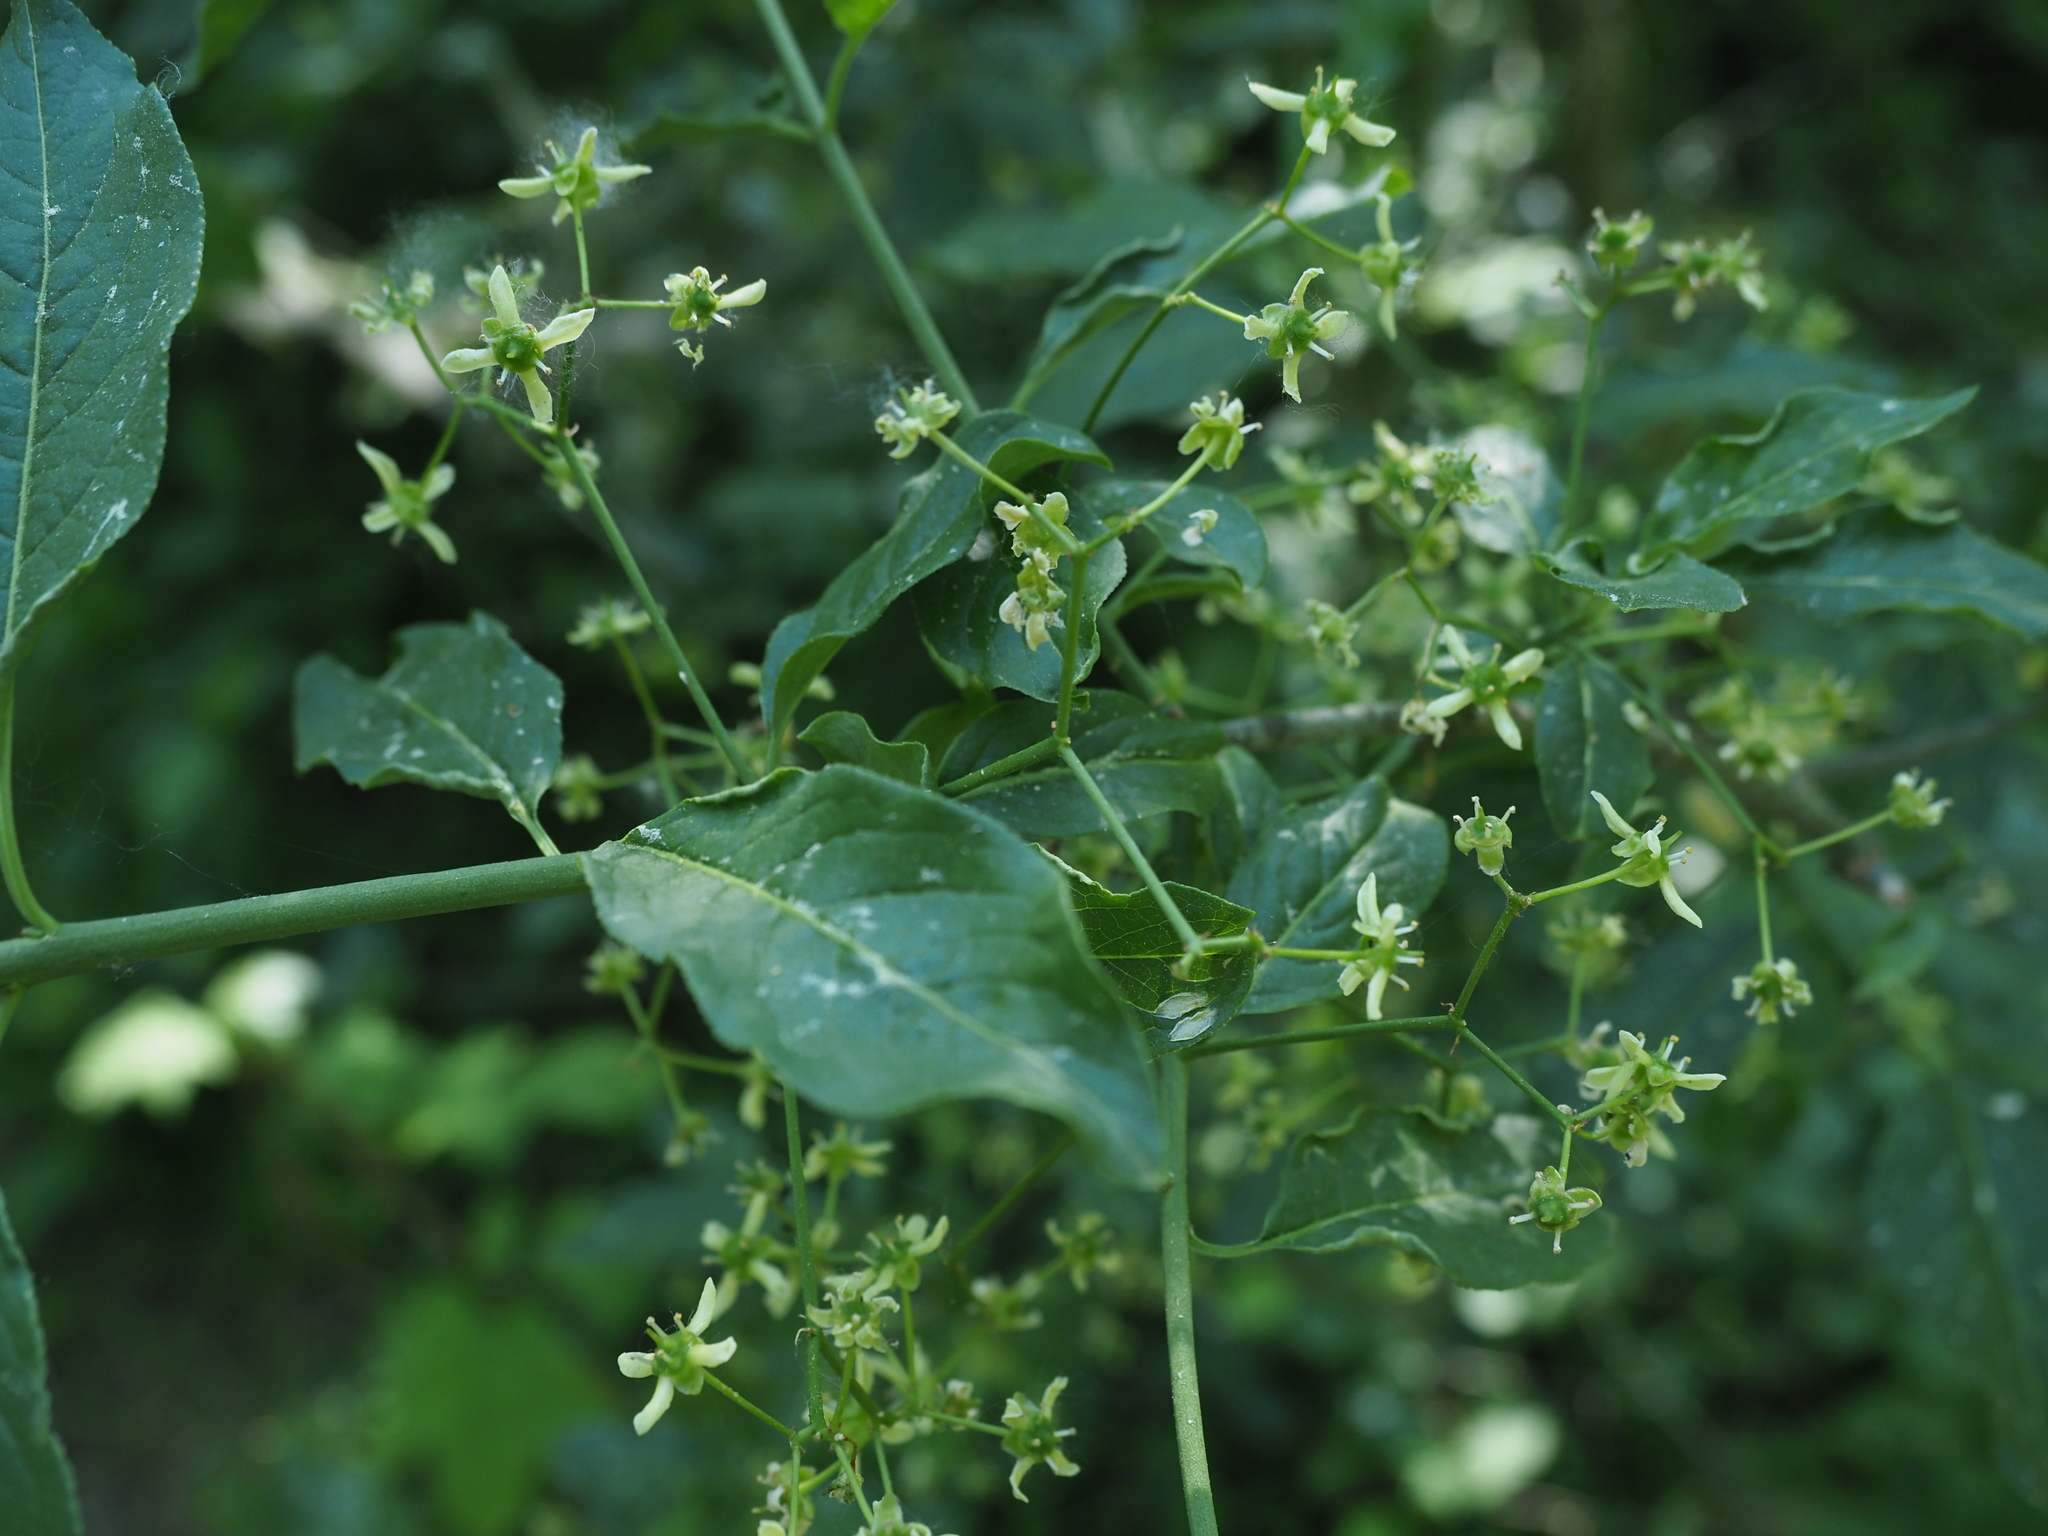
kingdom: Plantae
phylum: Tracheophyta
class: Magnoliopsida
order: Celastrales
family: Celastraceae
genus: Euonymus
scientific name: Euonymus europaeus
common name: Spindle
